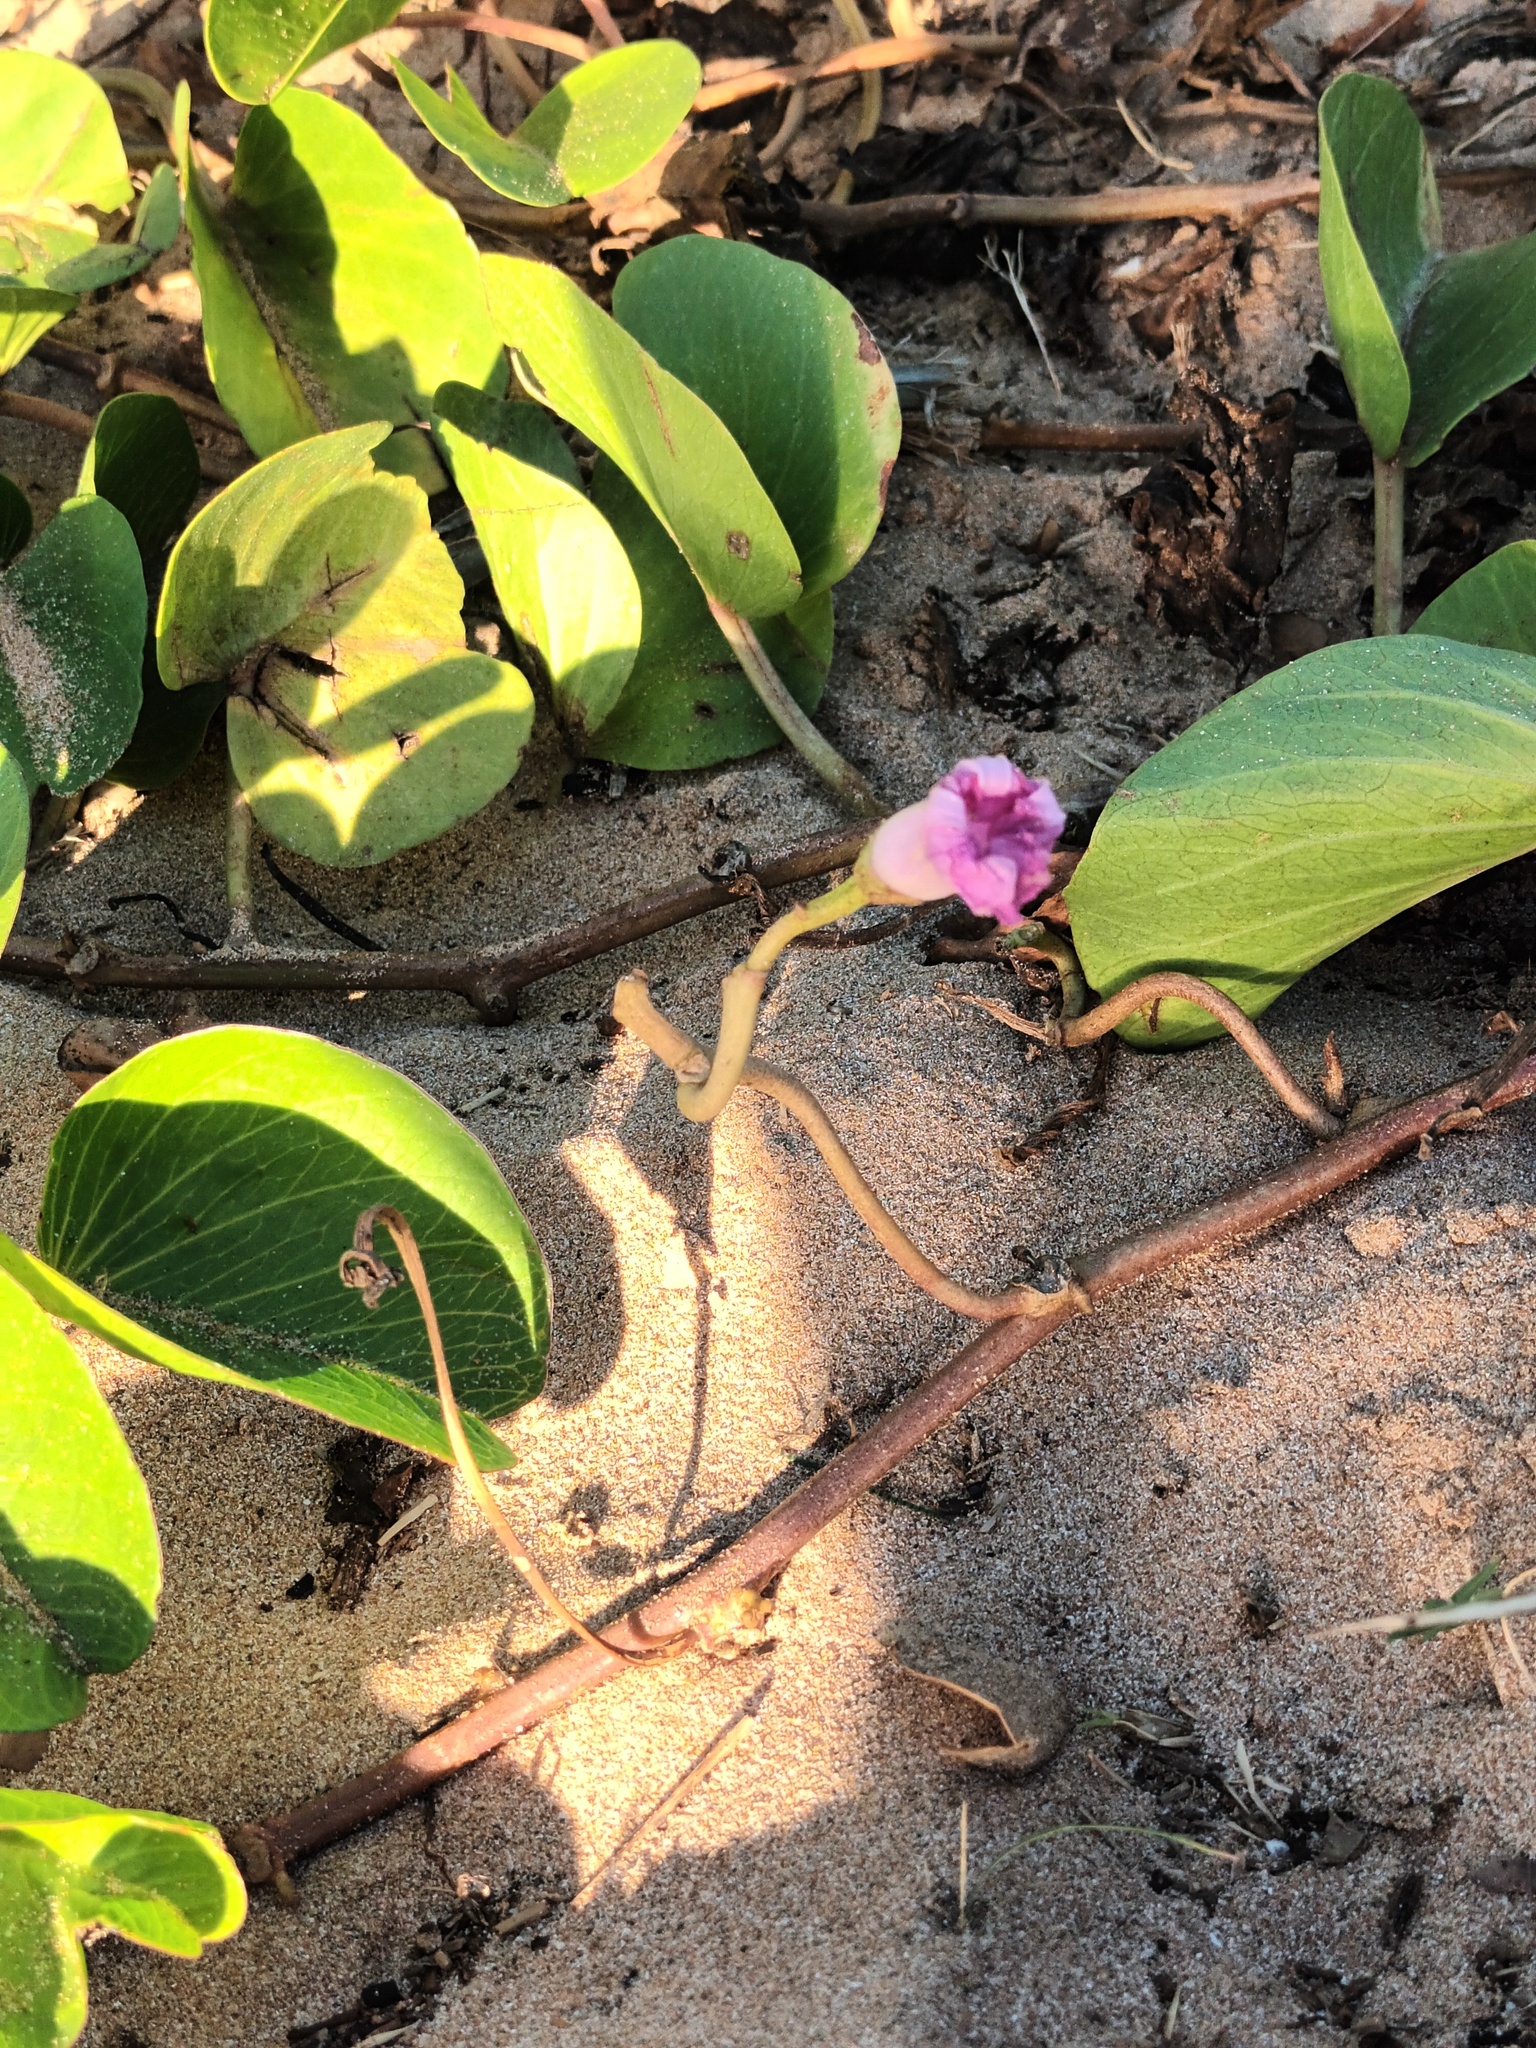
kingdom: Plantae
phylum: Tracheophyta
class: Magnoliopsida
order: Solanales
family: Convolvulaceae
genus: Ipomoea
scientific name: Ipomoea pes-caprae
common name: Beach morning glory
